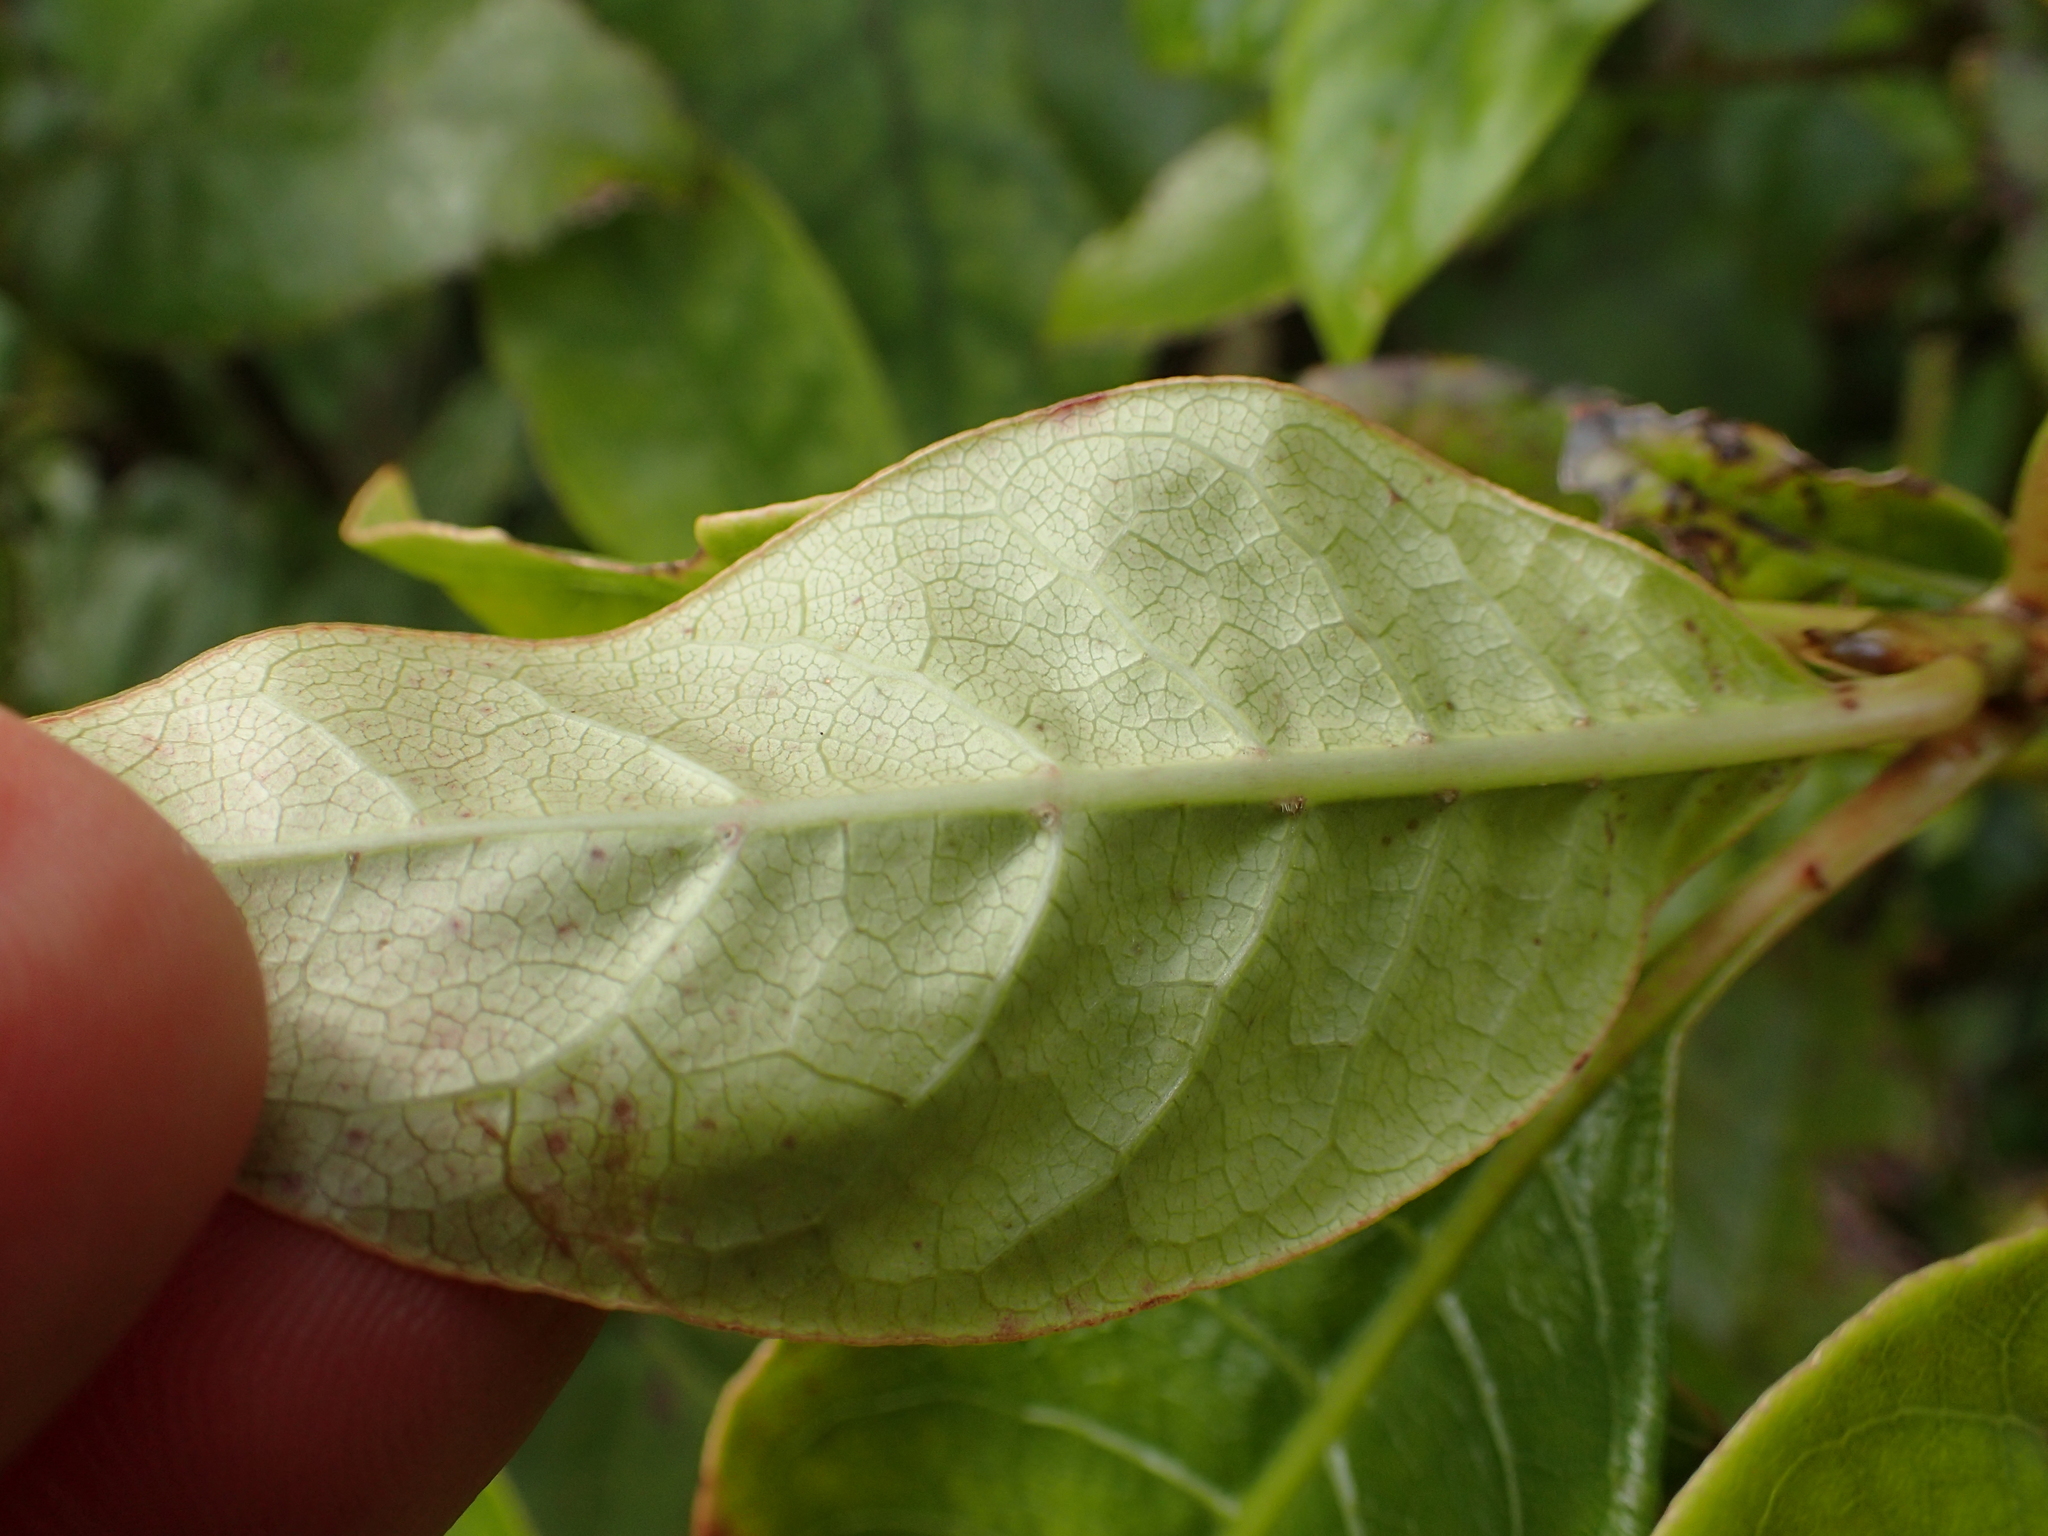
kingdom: Plantae
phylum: Tracheophyta
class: Magnoliopsida
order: Gentianales
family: Rubiaceae
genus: Coprosma
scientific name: Coprosma autumnalis
